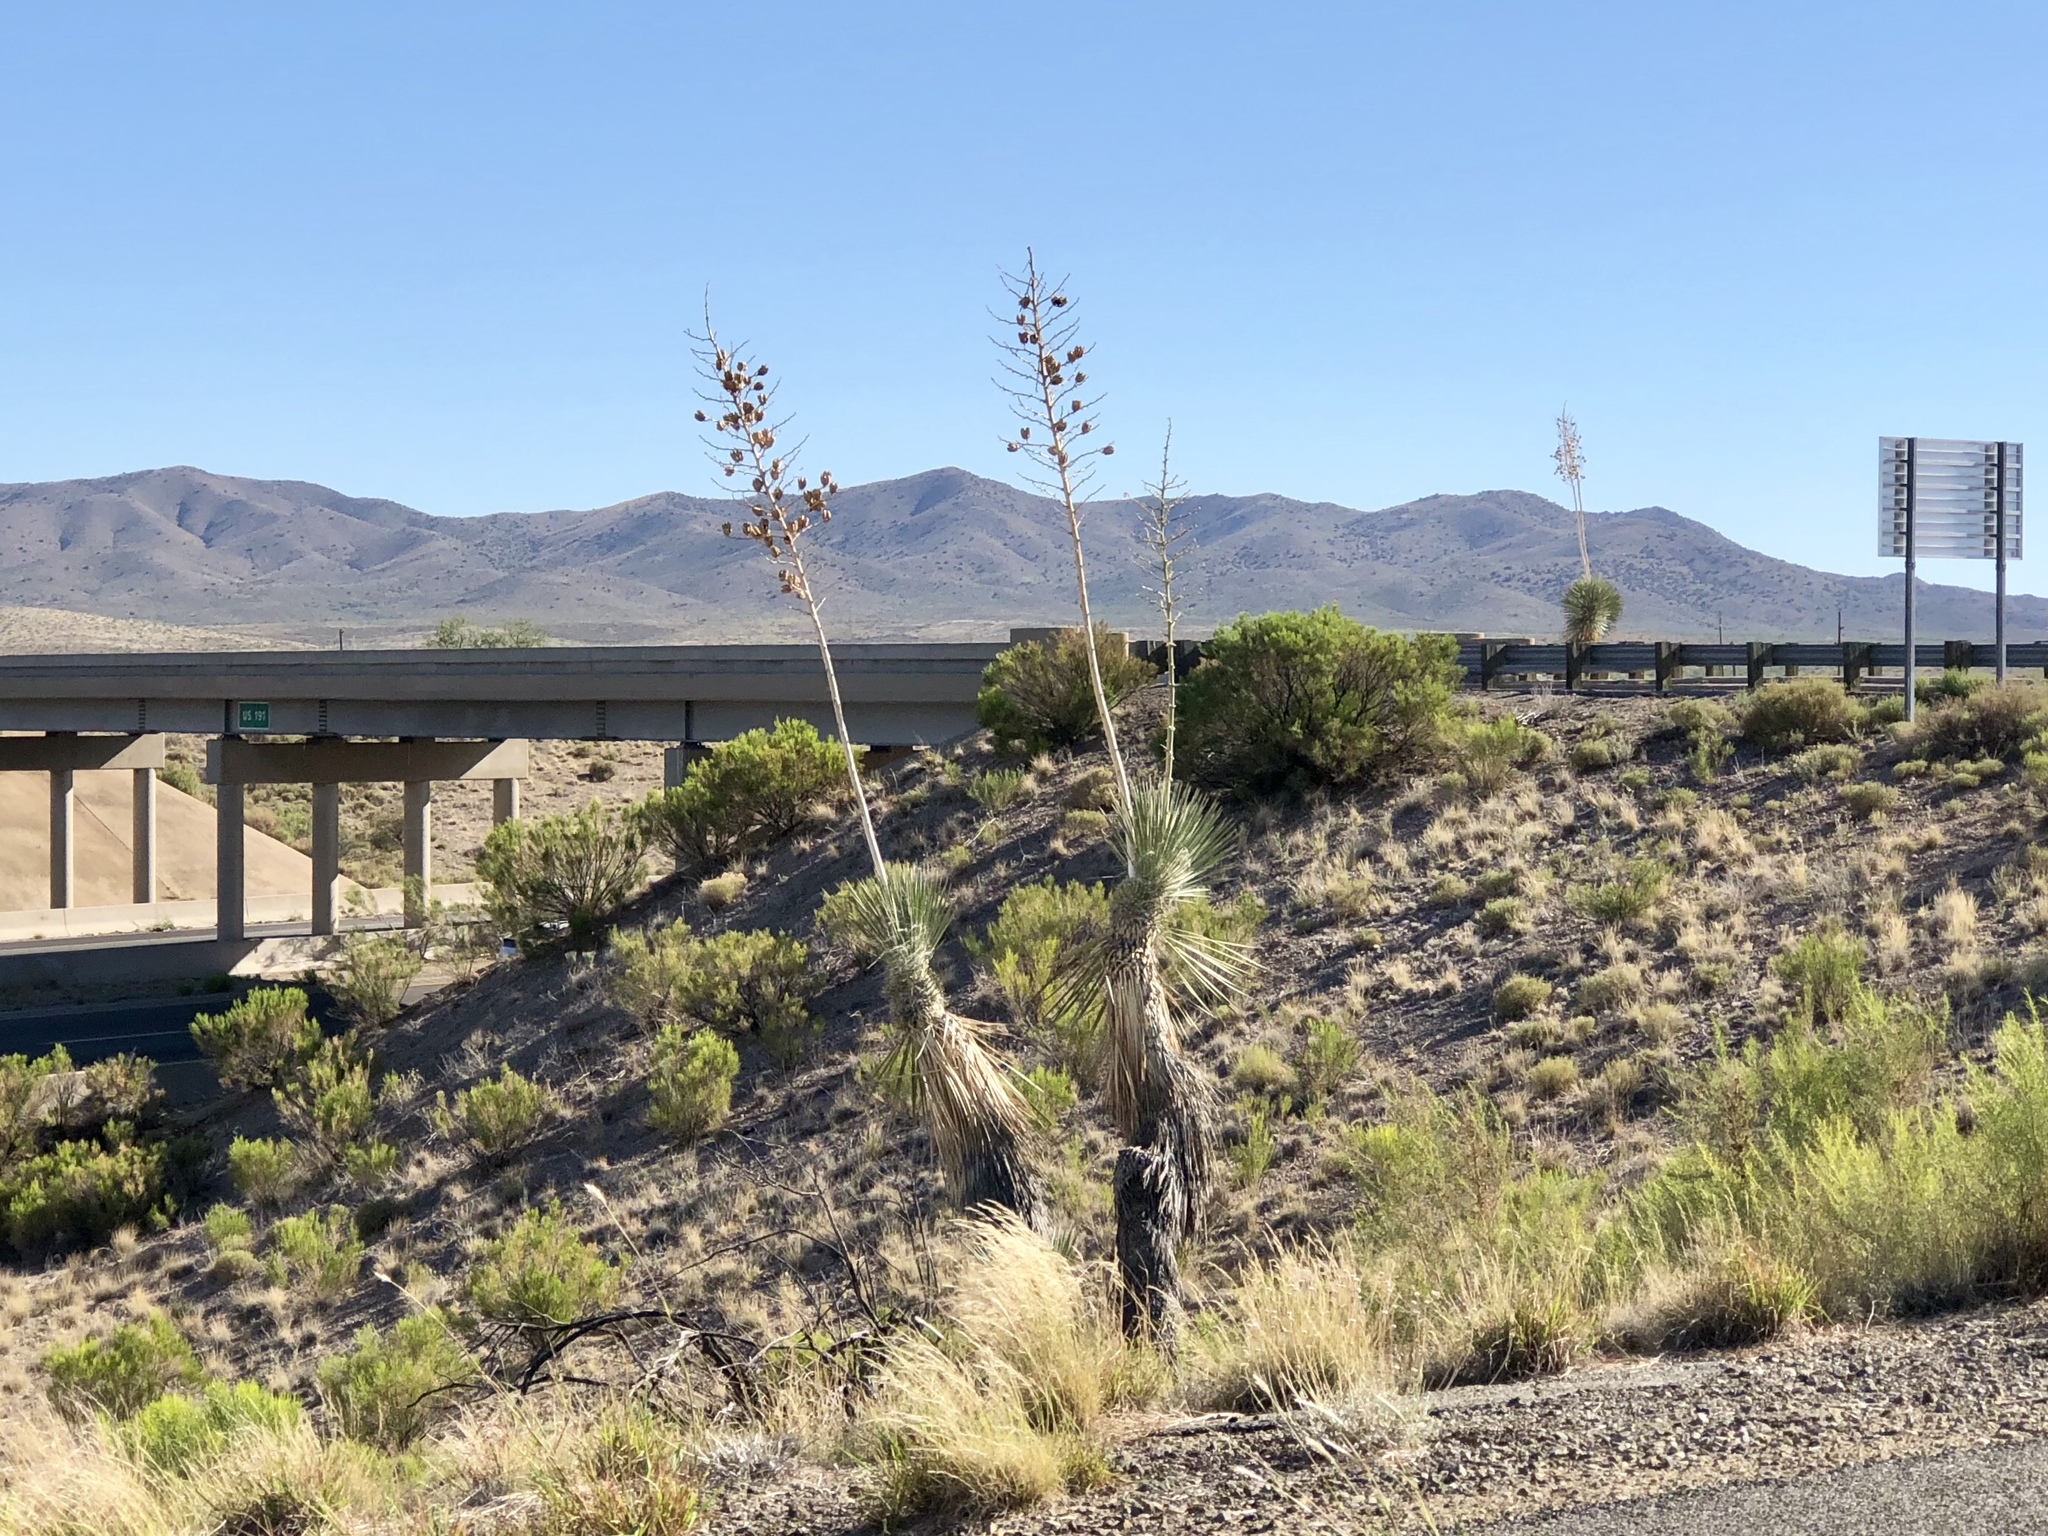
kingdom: Plantae
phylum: Tracheophyta
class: Liliopsida
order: Asparagales
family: Asparagaceae
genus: Yucca
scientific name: Yucca elata
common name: Palmella
